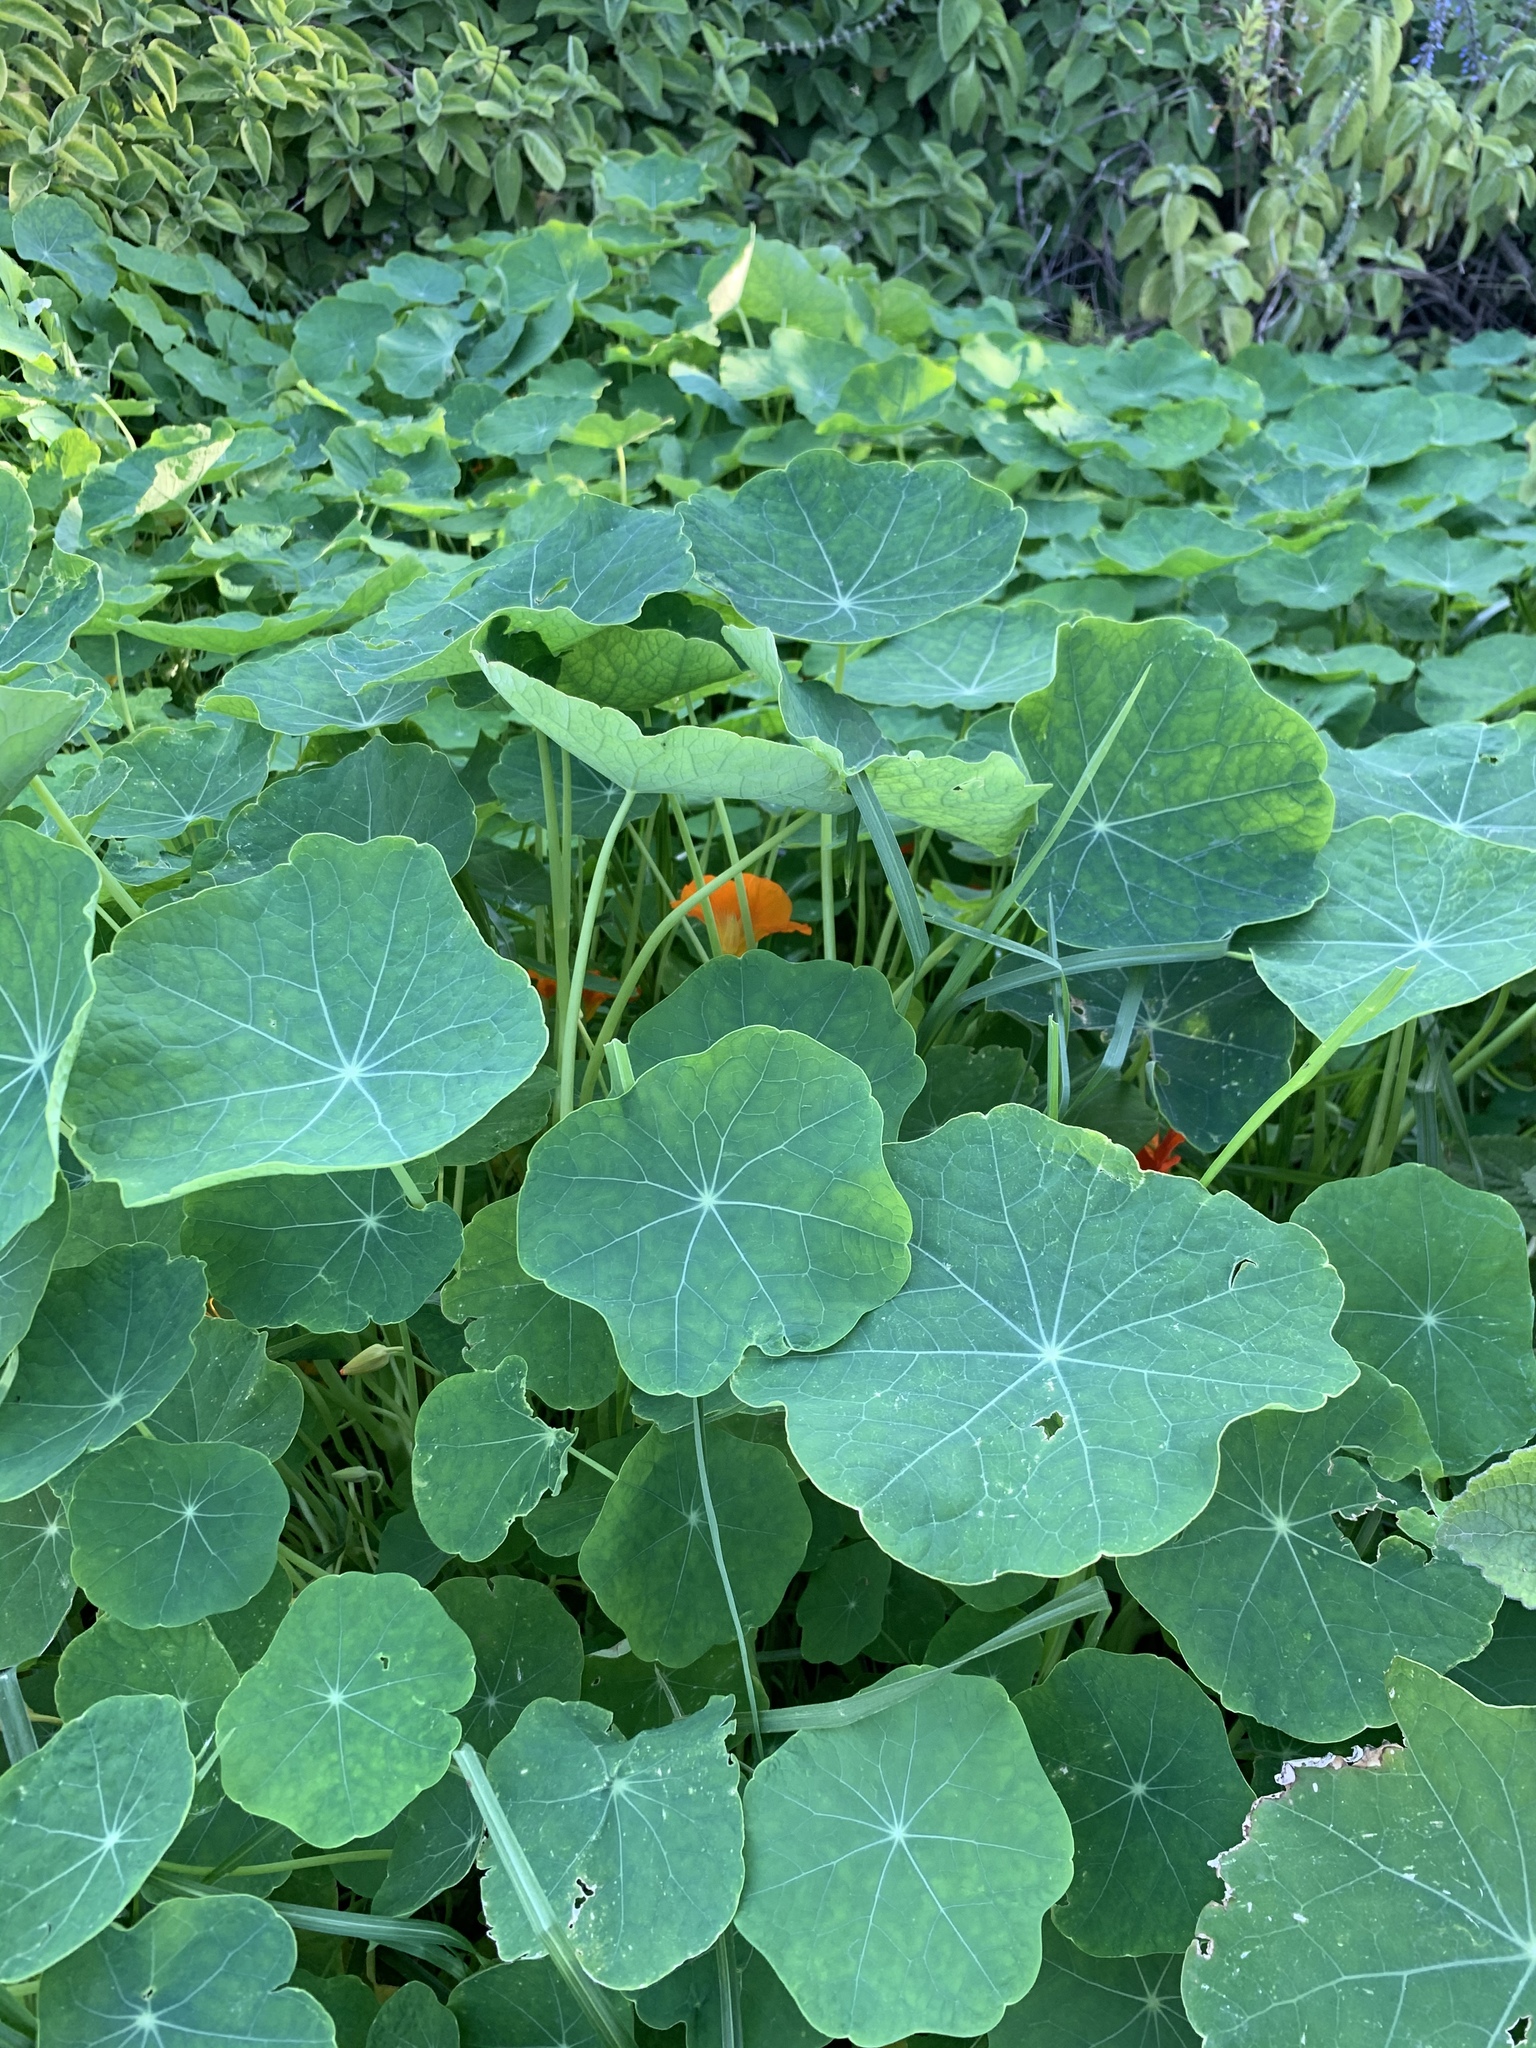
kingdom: Plantae
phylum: Tracheophyta
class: Magnoliopsida
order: Brassicales
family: Tropaeolaceae
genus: Tropaeolum
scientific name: Tropaeolum majus
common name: Nasturtium
